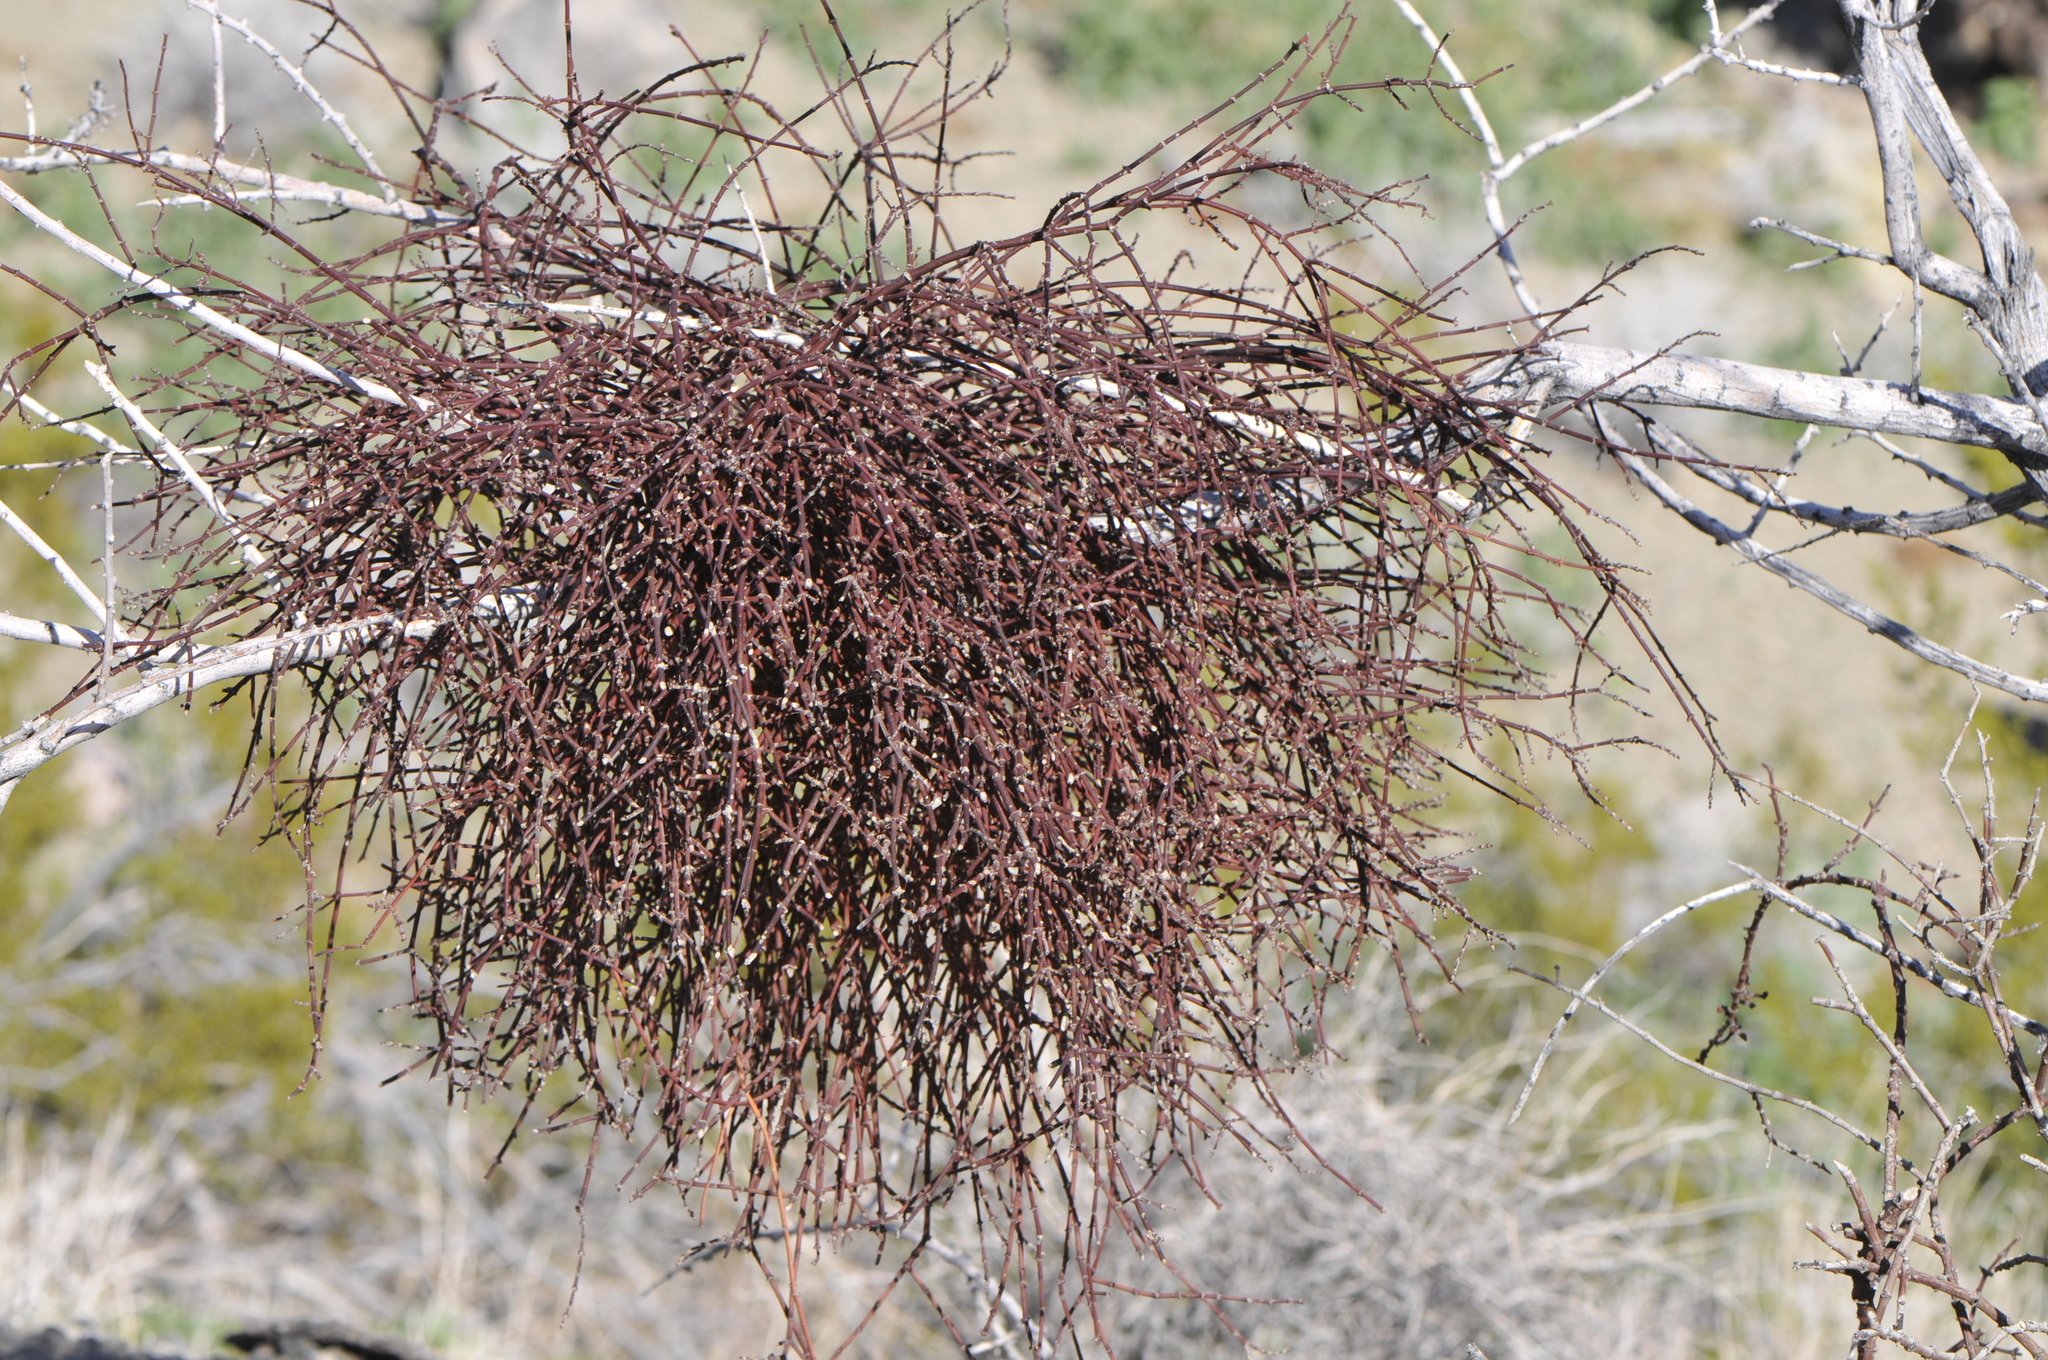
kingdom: Plantae
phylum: Tracheophyta
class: Magnoliopsida
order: Santalales
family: Viscaceae
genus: Phoradendron
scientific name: Phoradendron californicum
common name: Acacia mistletoe
